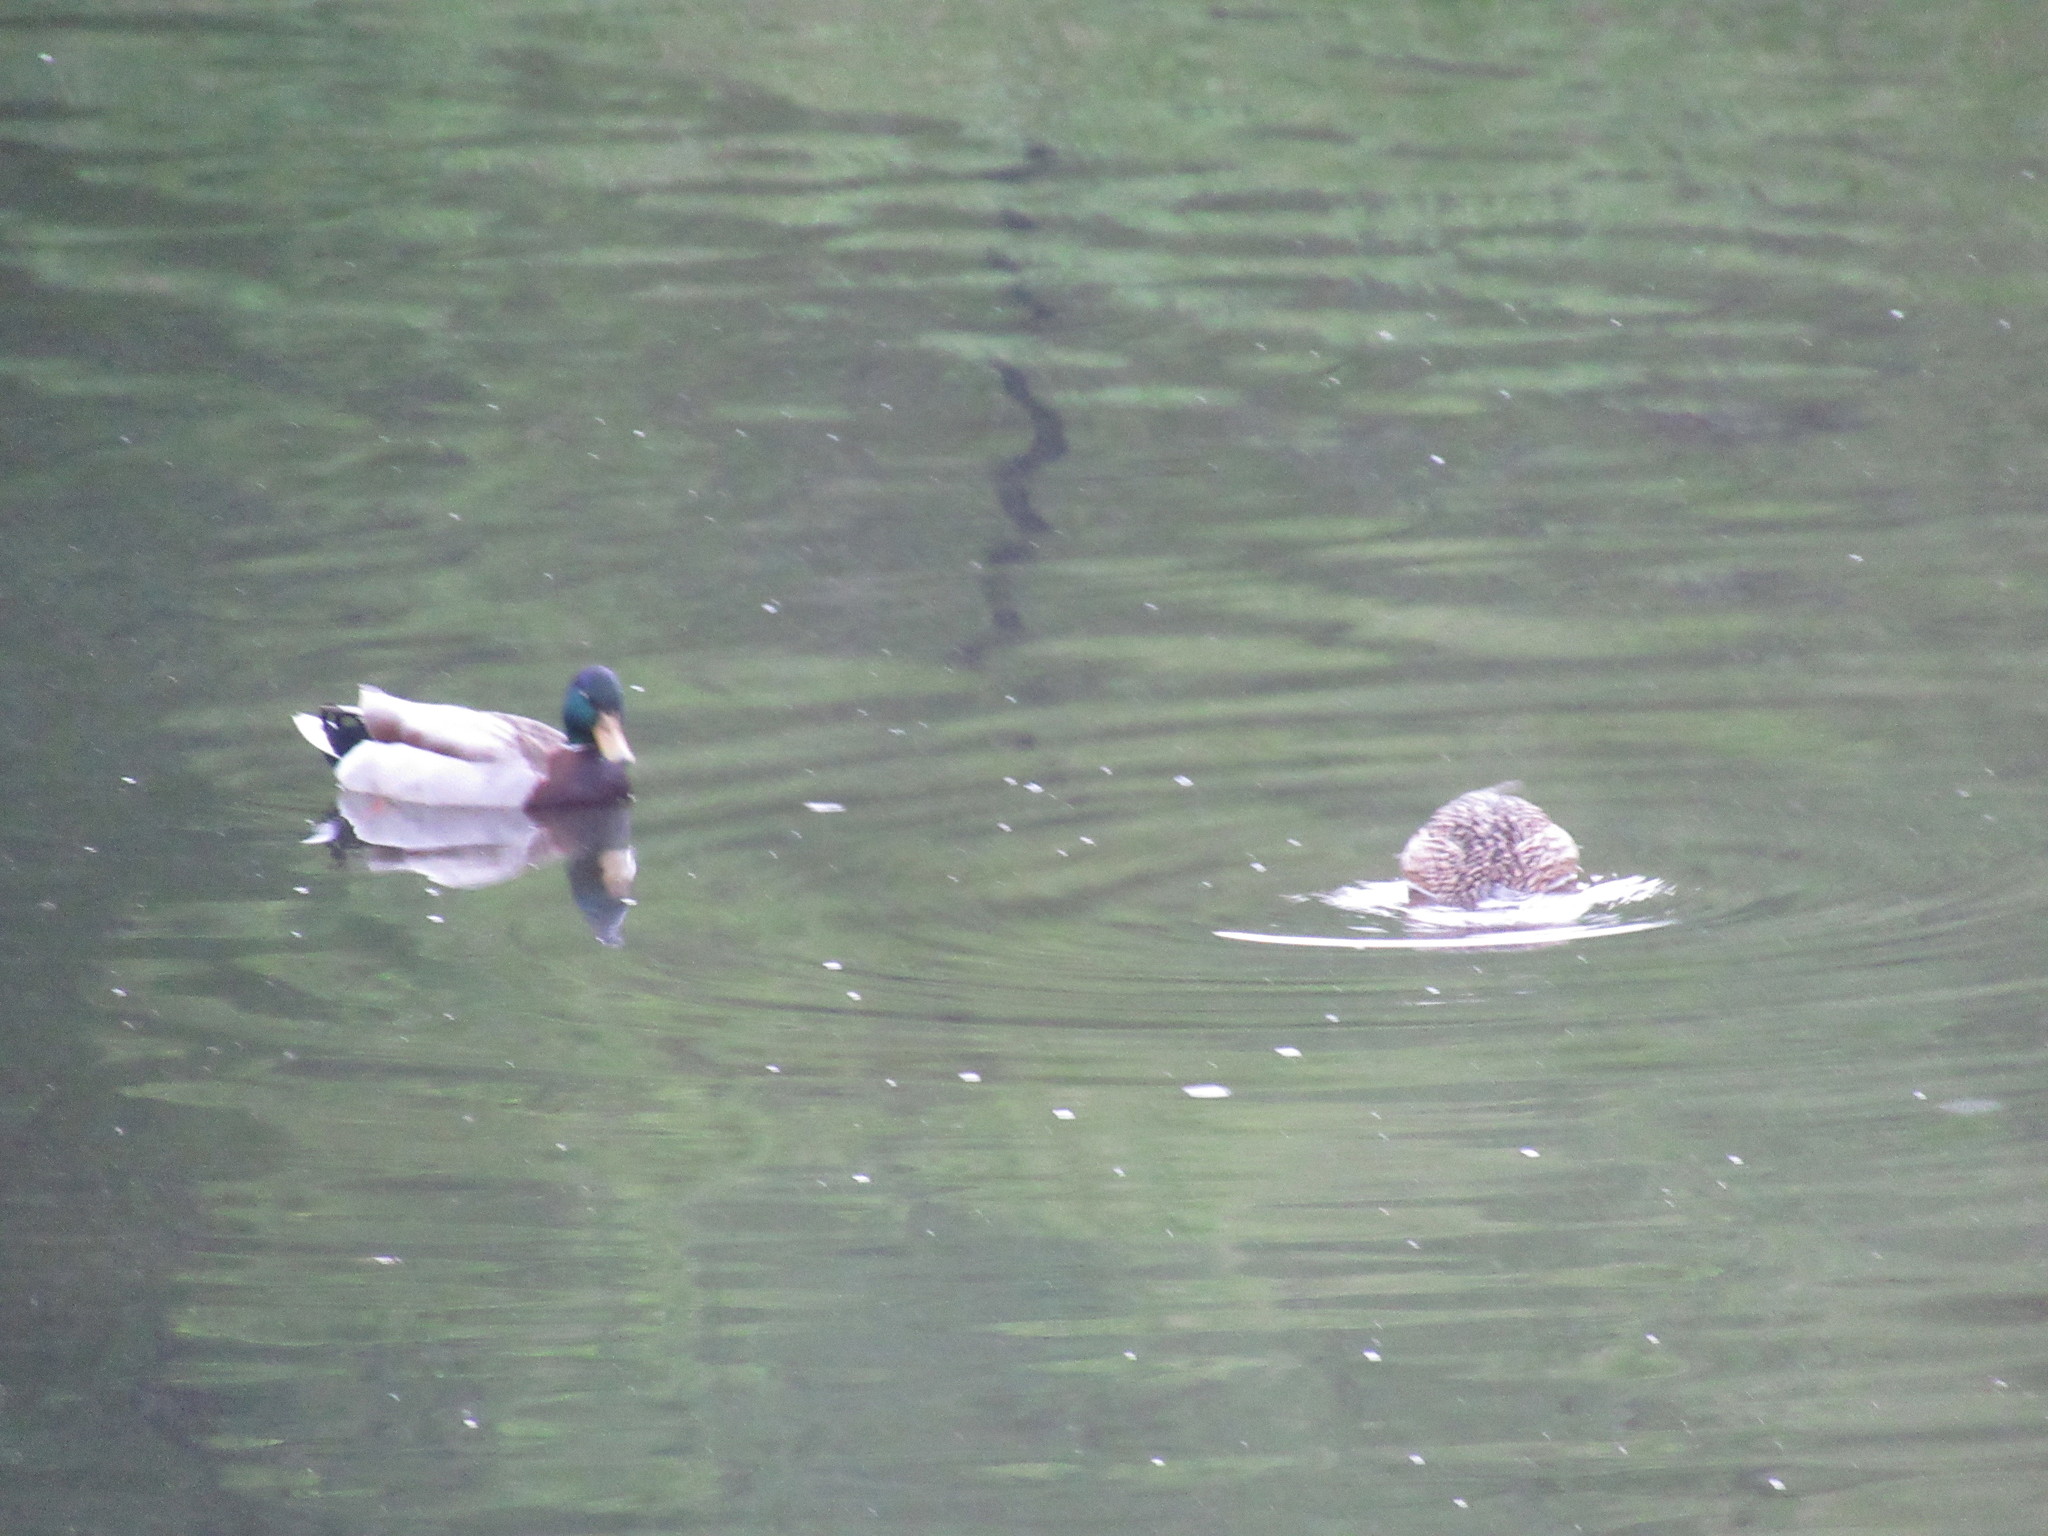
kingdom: Animalia
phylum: Chordata
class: Aves
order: Anseriformes
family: Anatidae
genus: Anas
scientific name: Anas platyrhynchos
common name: Mallard
